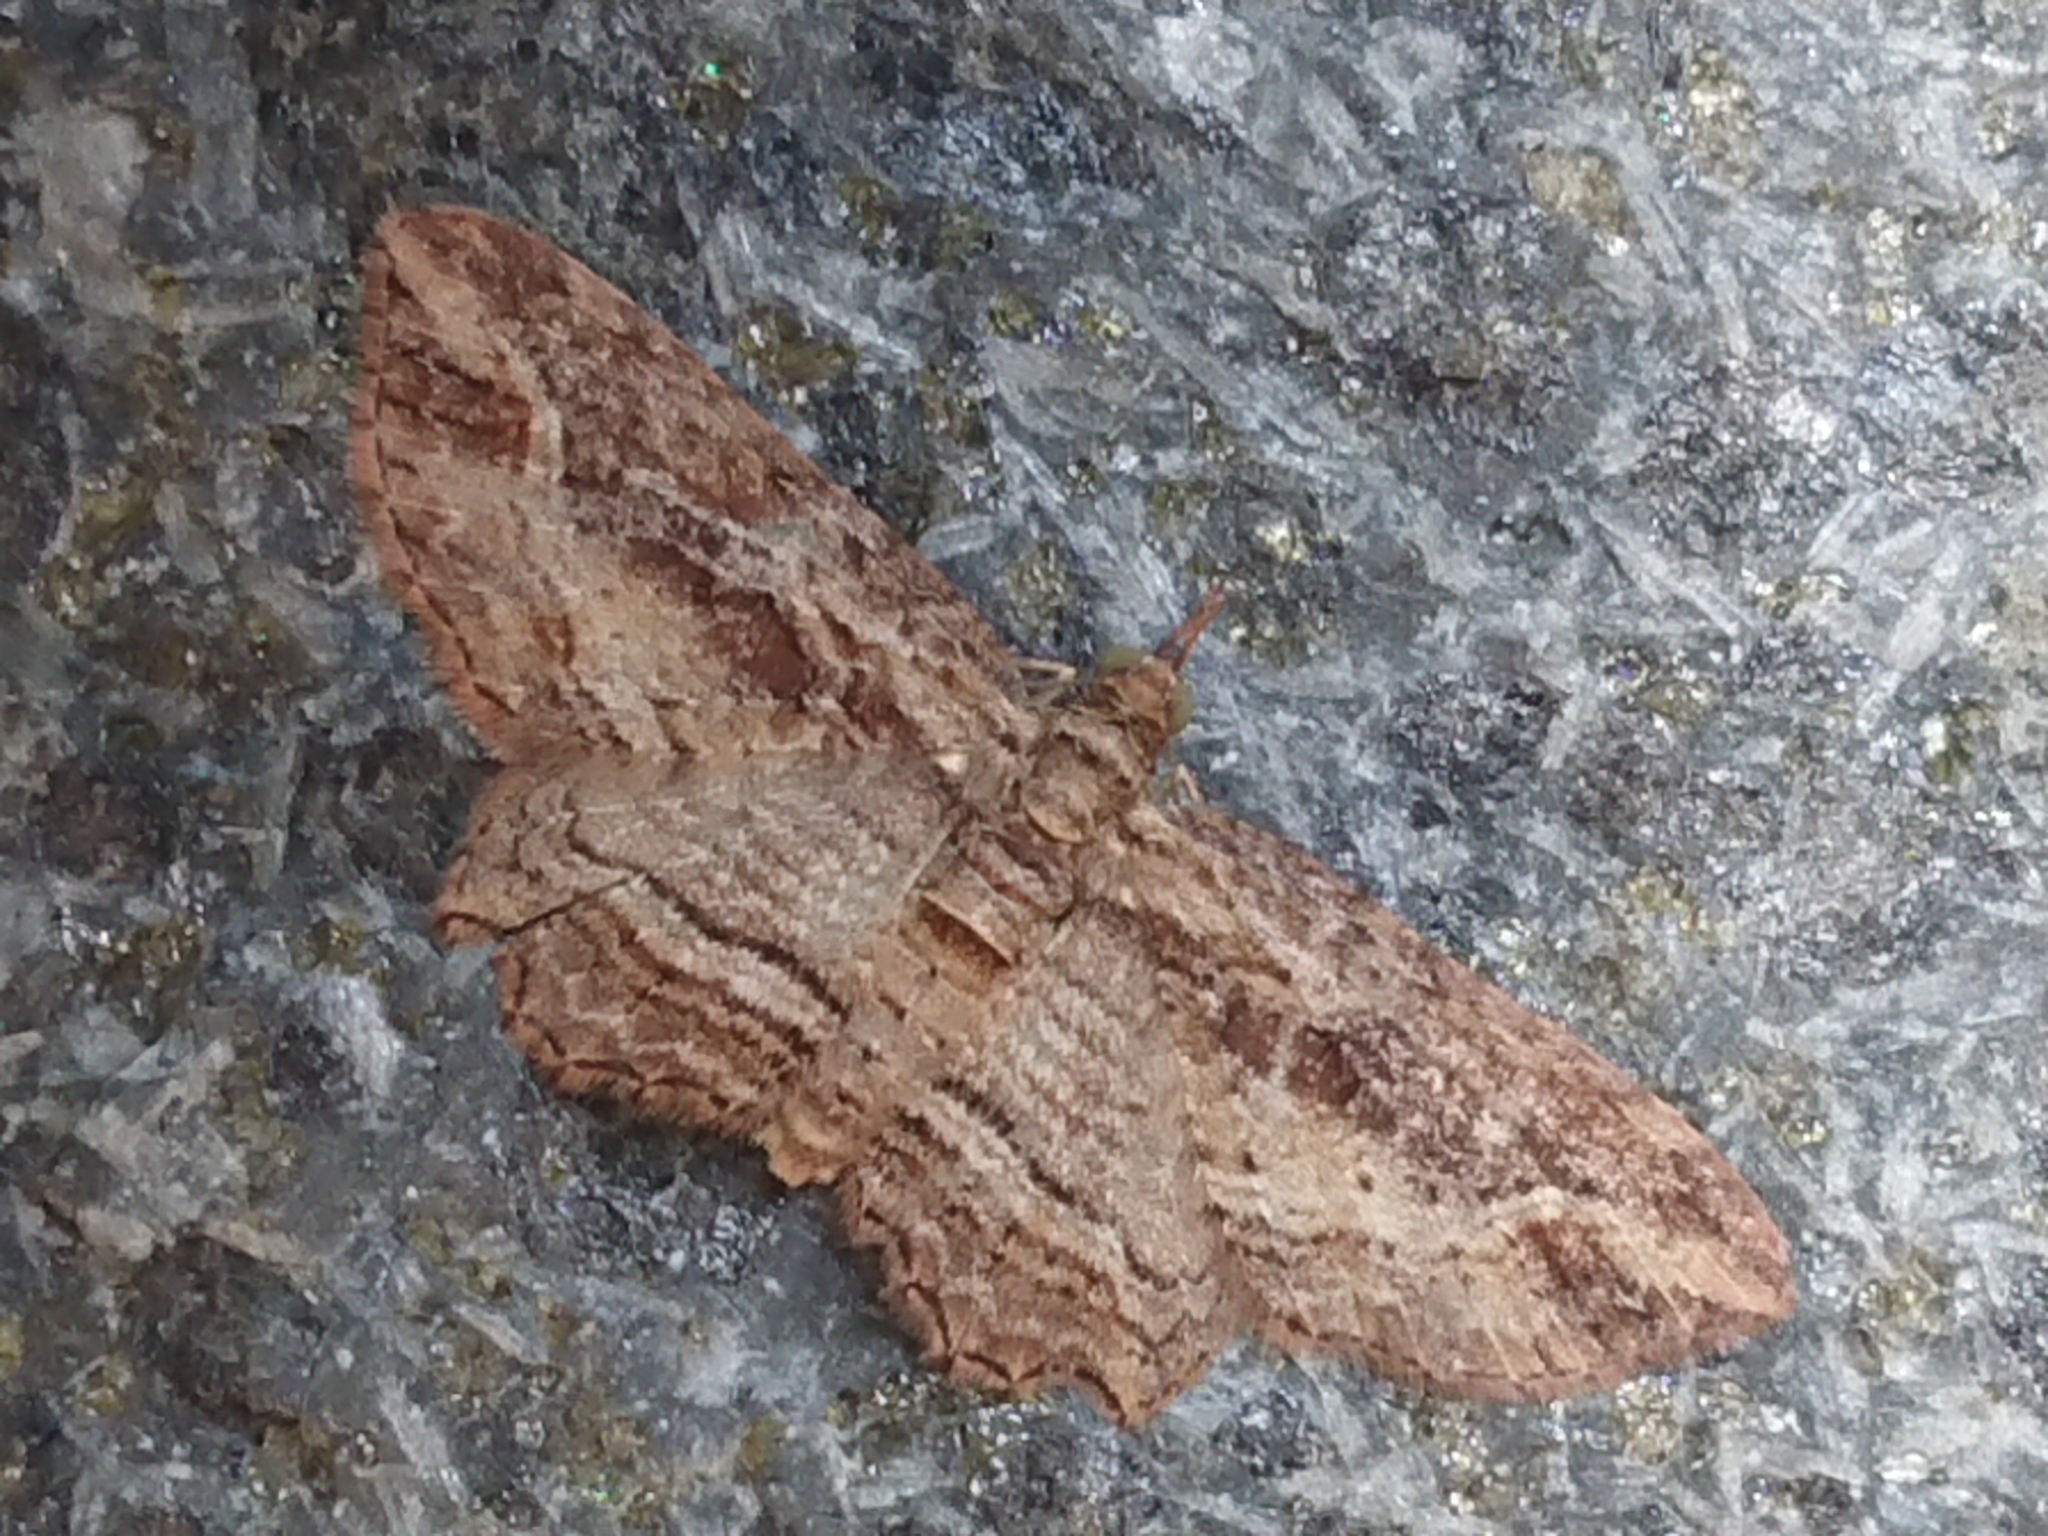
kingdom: Animalia
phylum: Arthropoda
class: Insecta
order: Lepidoptera
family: Geometridae
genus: Chloroclystis
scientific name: Chloroclystis filata
